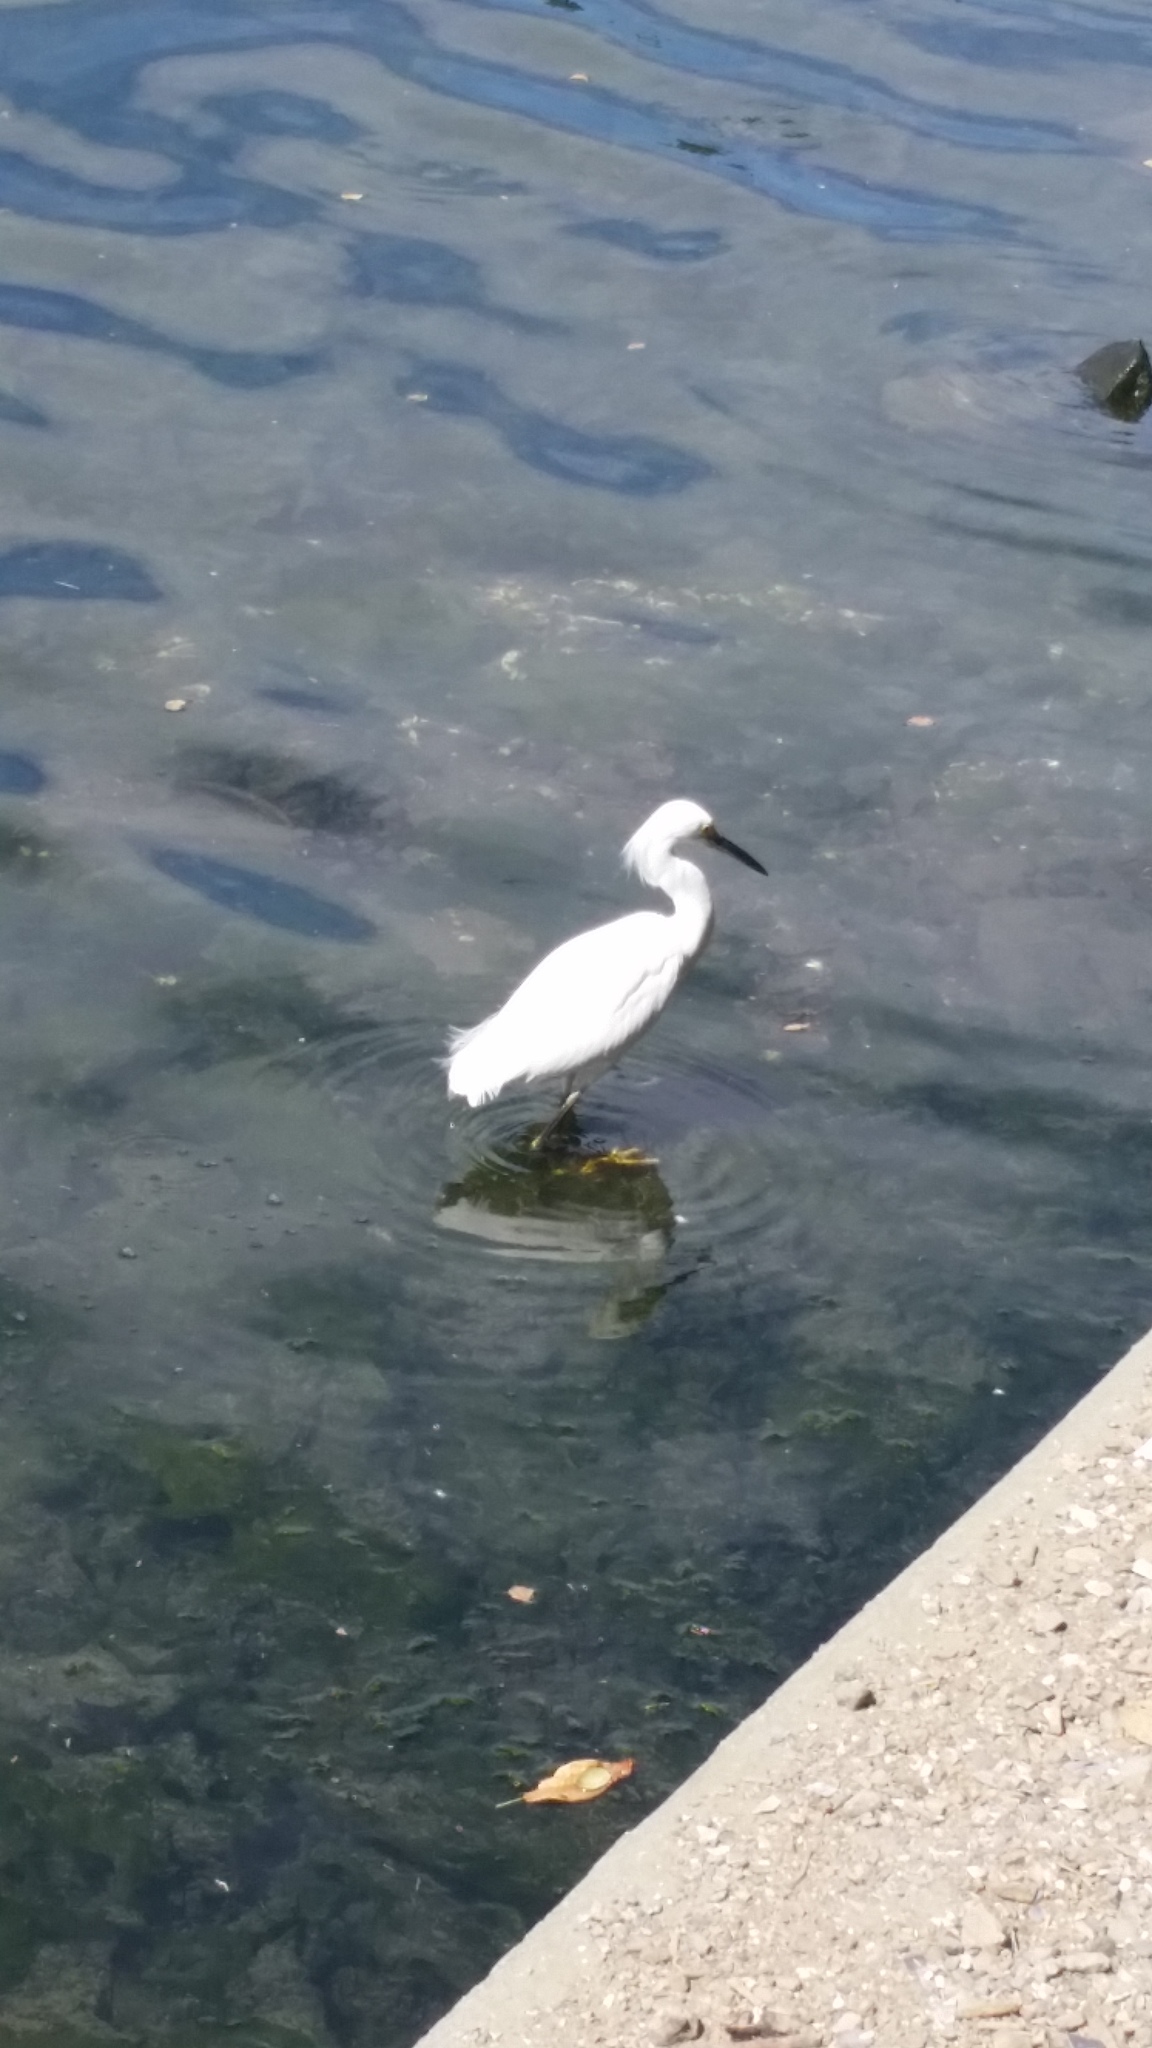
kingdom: Animalia
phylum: Chordata
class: Aves
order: Pelecaniformes
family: Ardeidae
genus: Egretta
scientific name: Egretta thula
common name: Snowy egret
